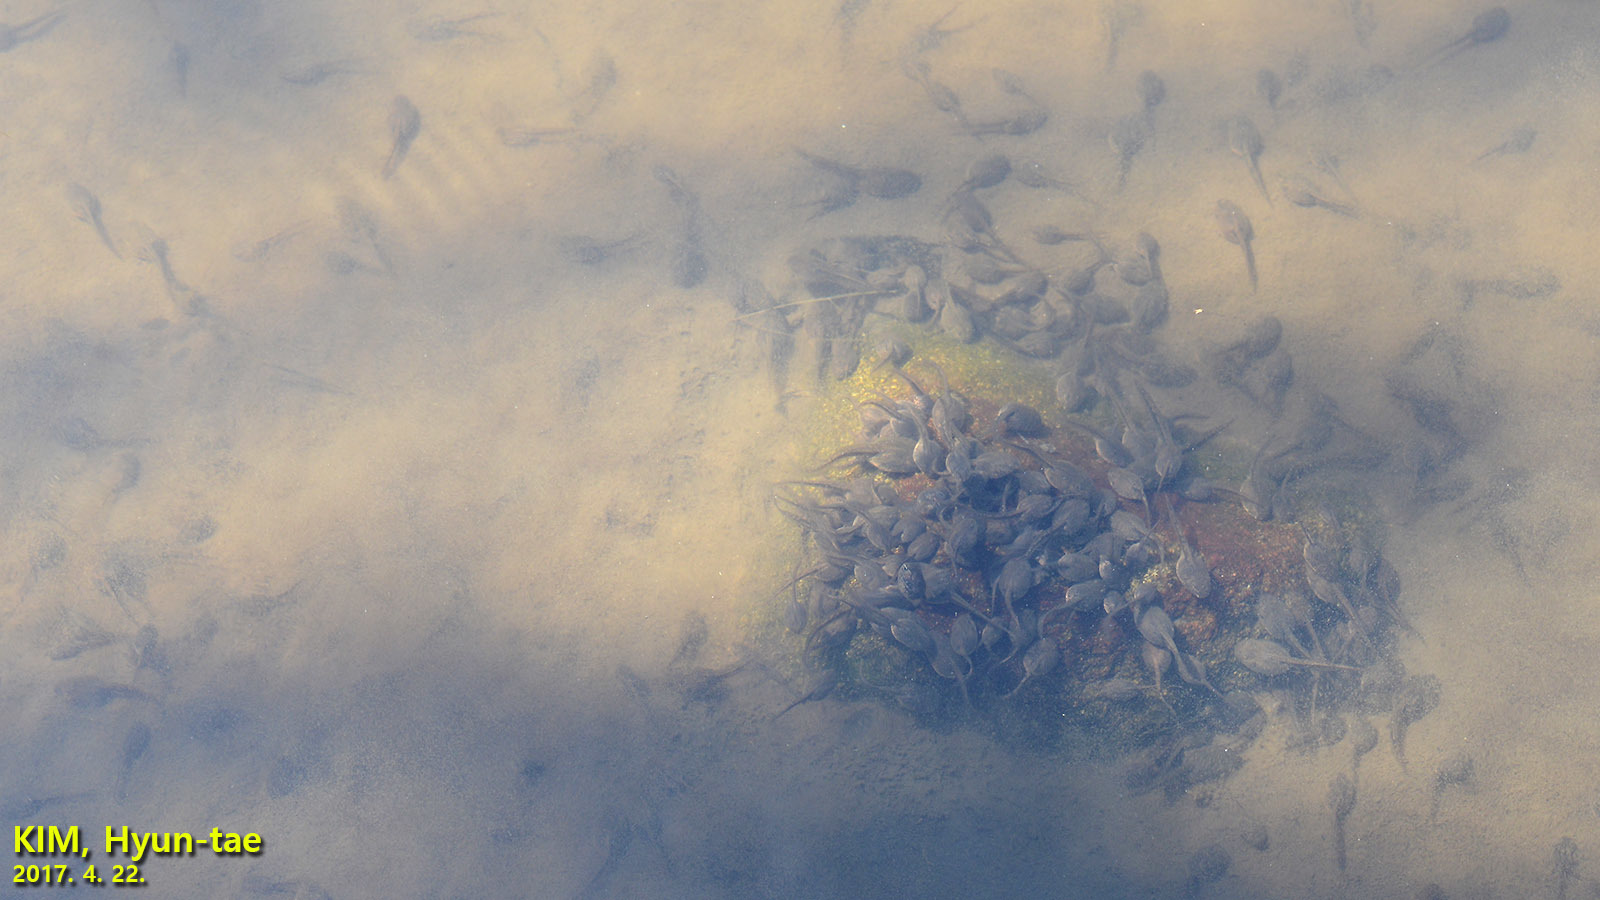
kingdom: Animalia
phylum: Chordata
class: Amphibia
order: Anura
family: Ranidae
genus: Rana
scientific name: Rana uenoi
